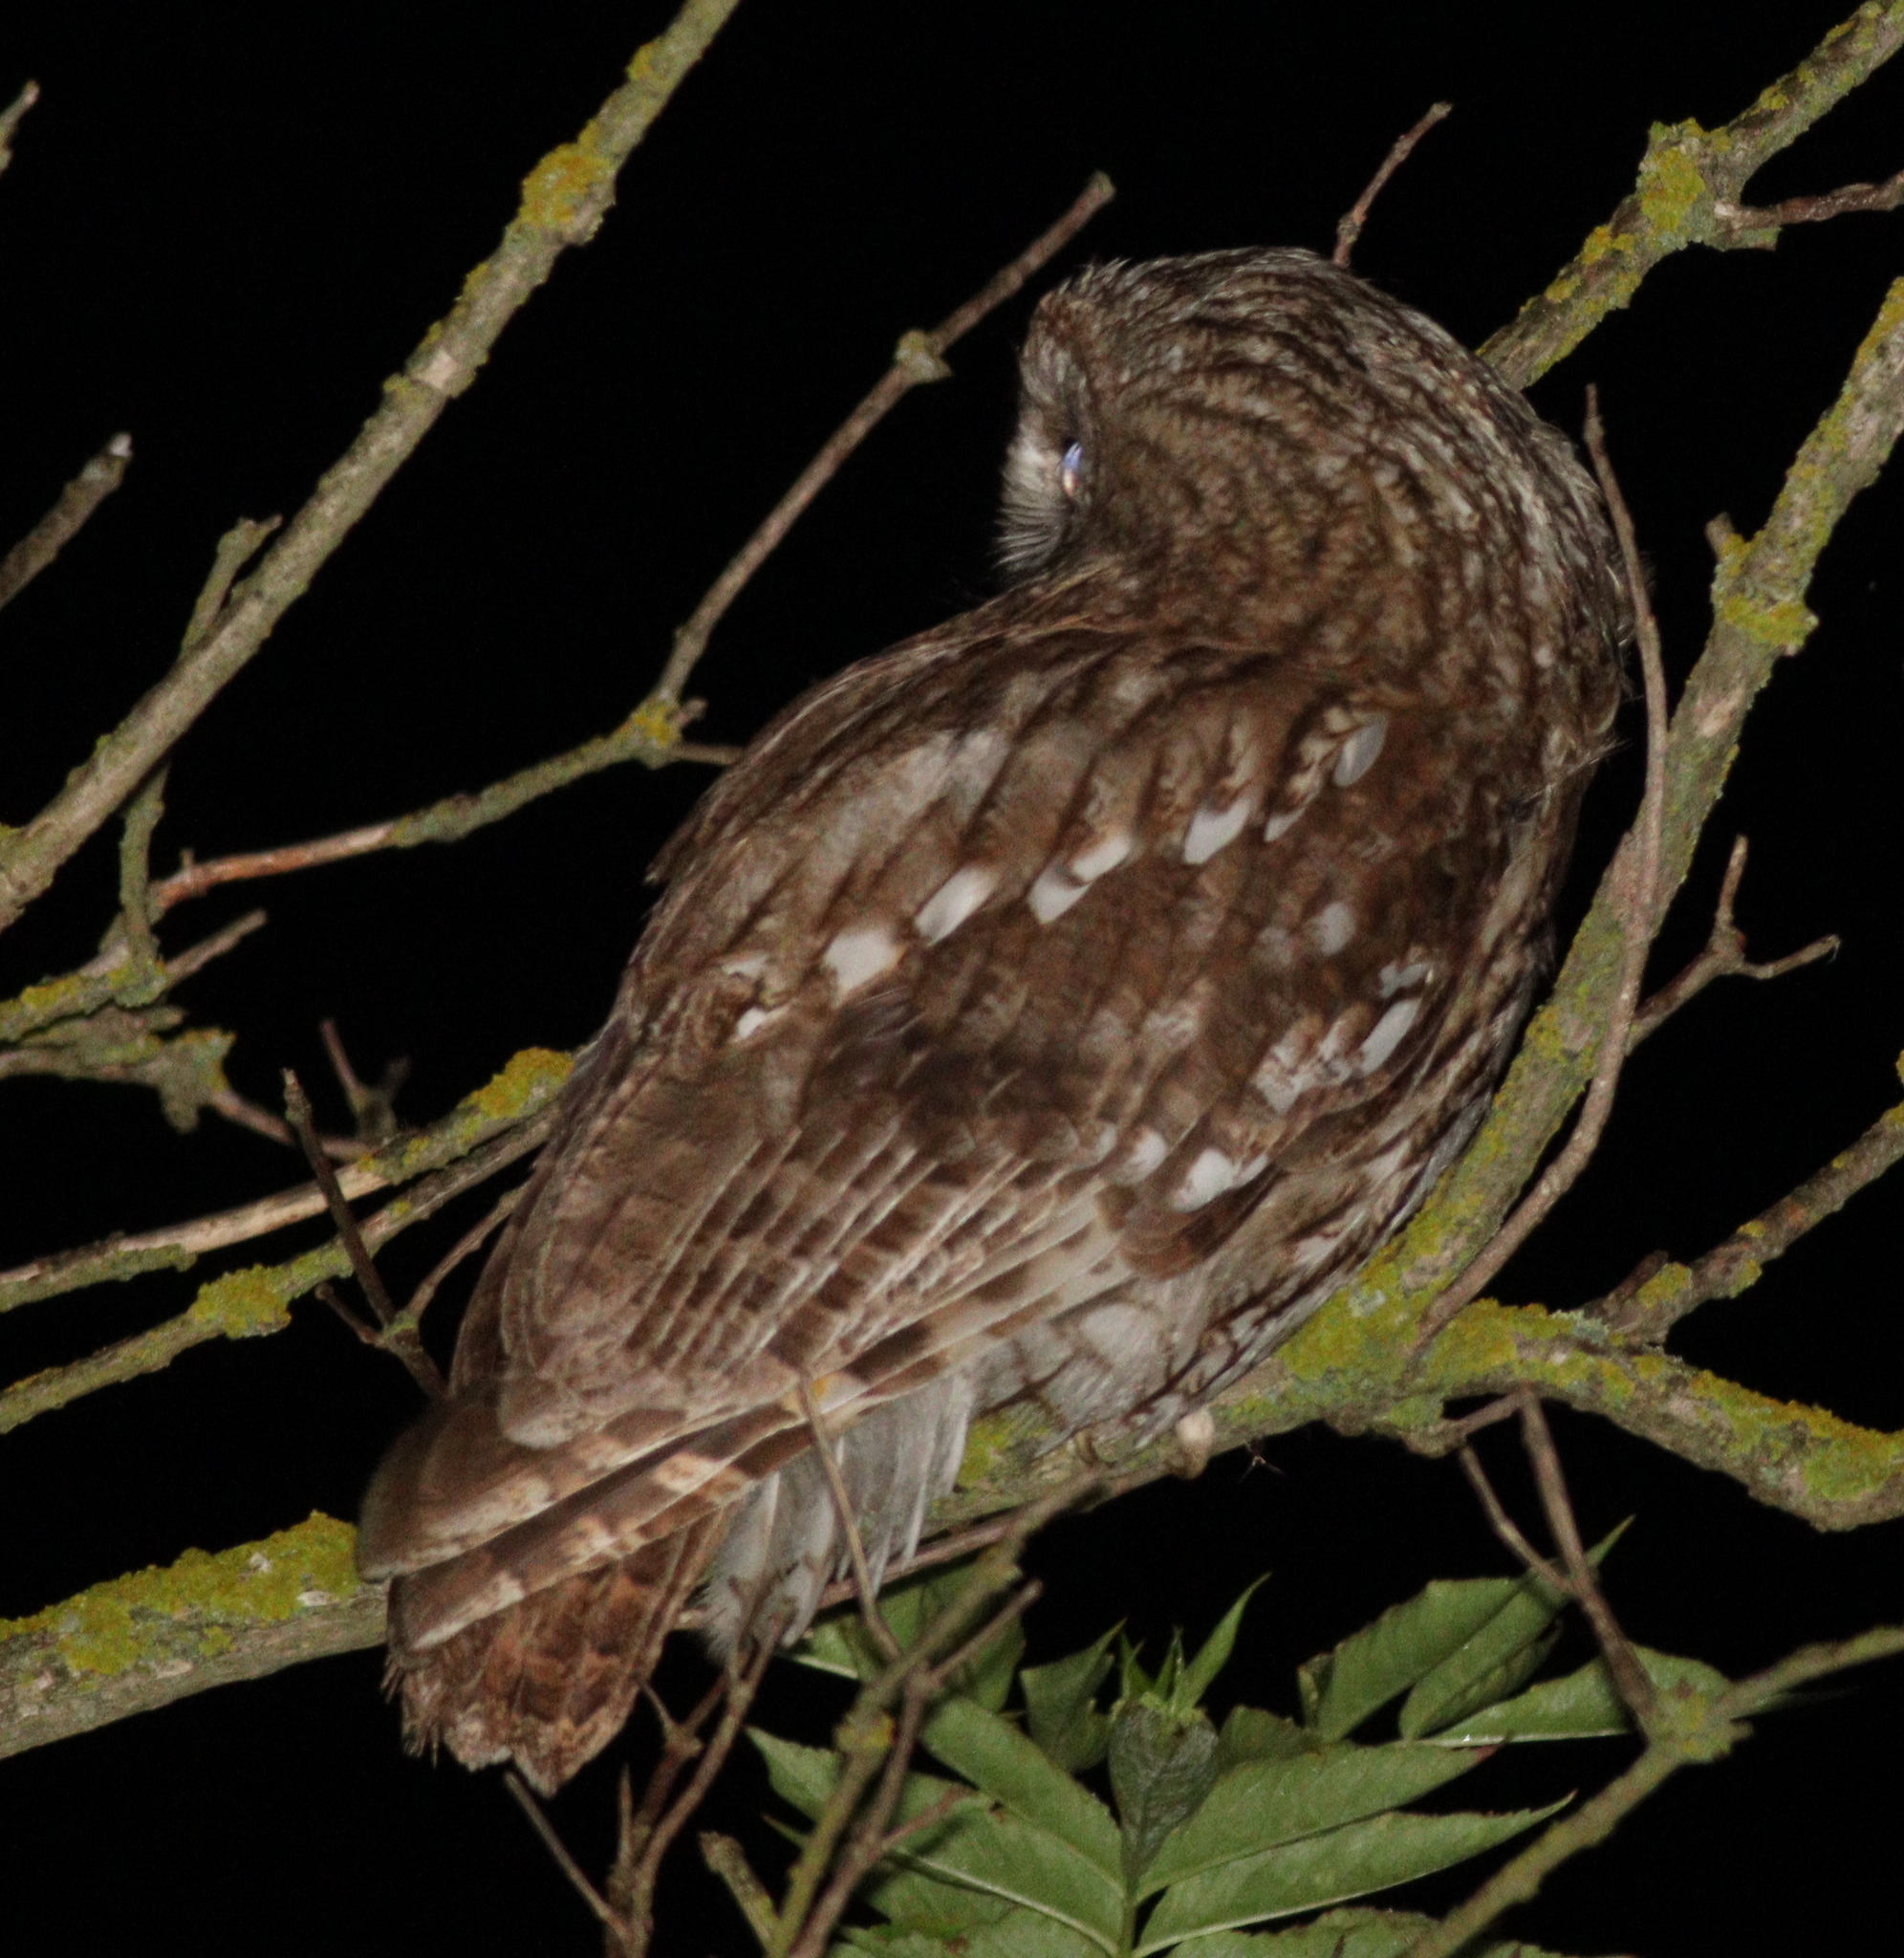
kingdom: Animalia
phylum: Chordata
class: Aves
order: Strigiformes
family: Strigidae
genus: Strix
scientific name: Strix aluco
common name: Tawny owl
